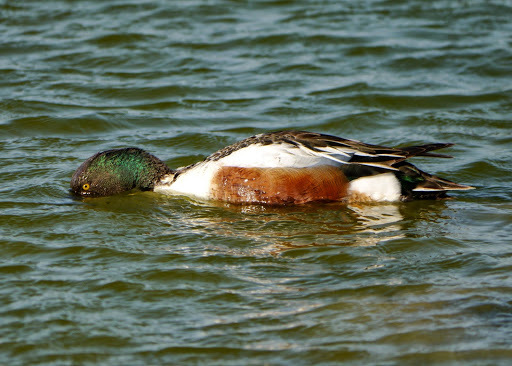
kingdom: Animalia
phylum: Chordata
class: Aves
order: Anseriformes
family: Anatidae
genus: Spatula
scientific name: Spatula clypeata
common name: Northern shoveler
